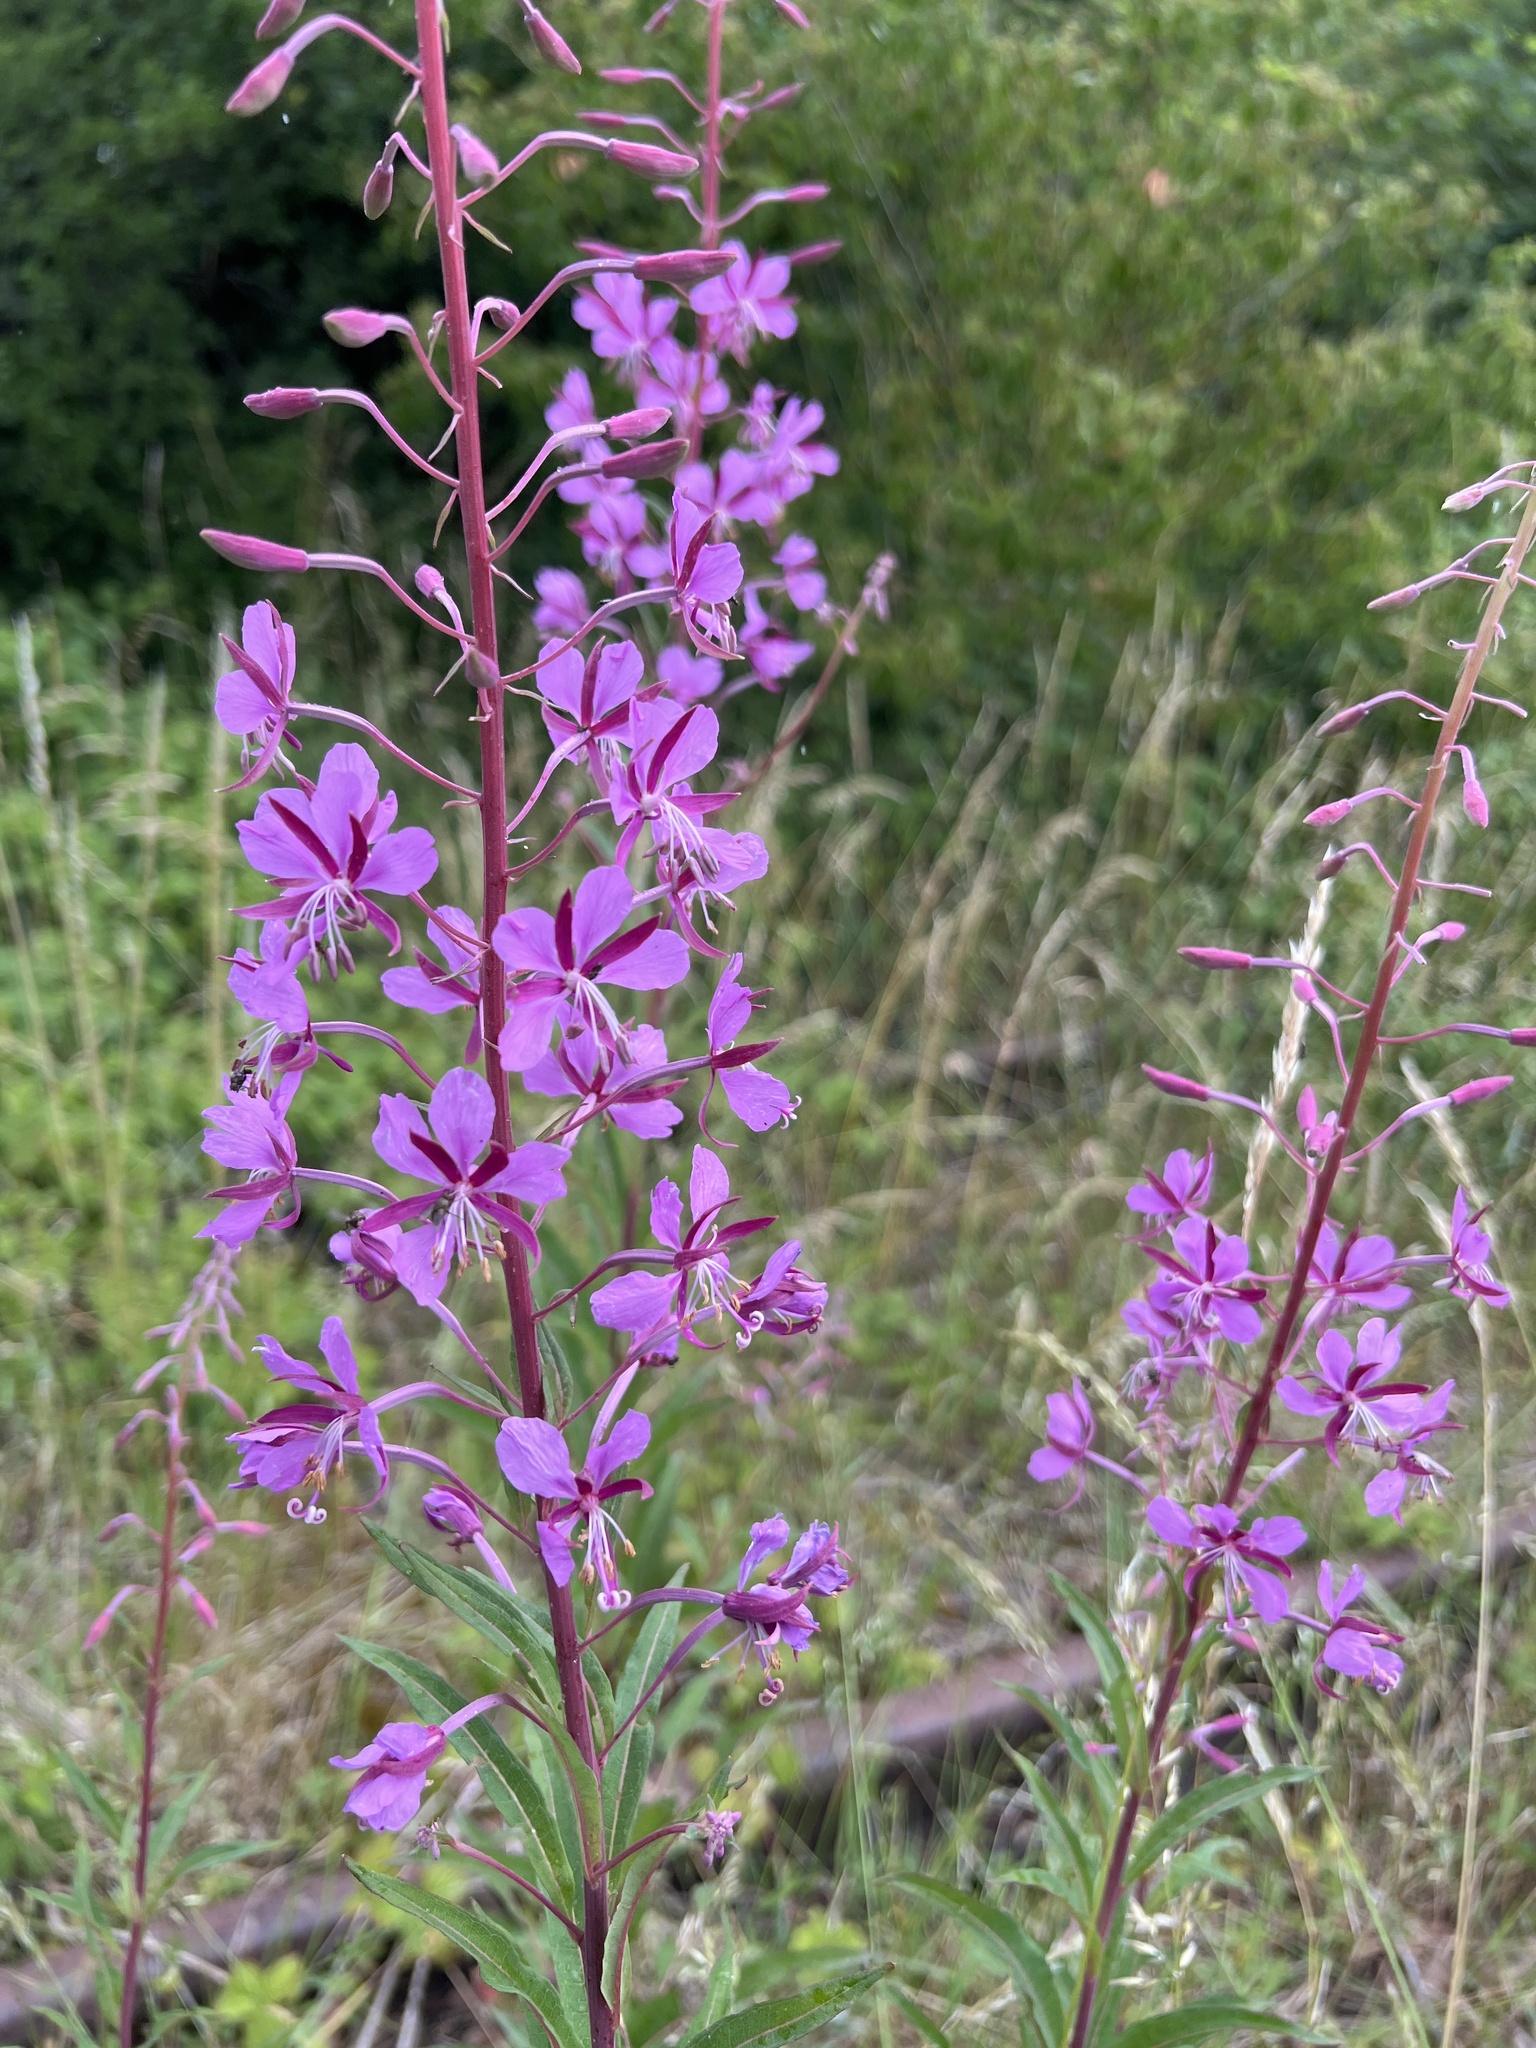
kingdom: Plantae
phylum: Tracheophyta
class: Magnoliopsida
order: Myrtales
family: Onagraceae
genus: Chamaenerion
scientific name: Chamaenerion angustifolium
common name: Fireweed
